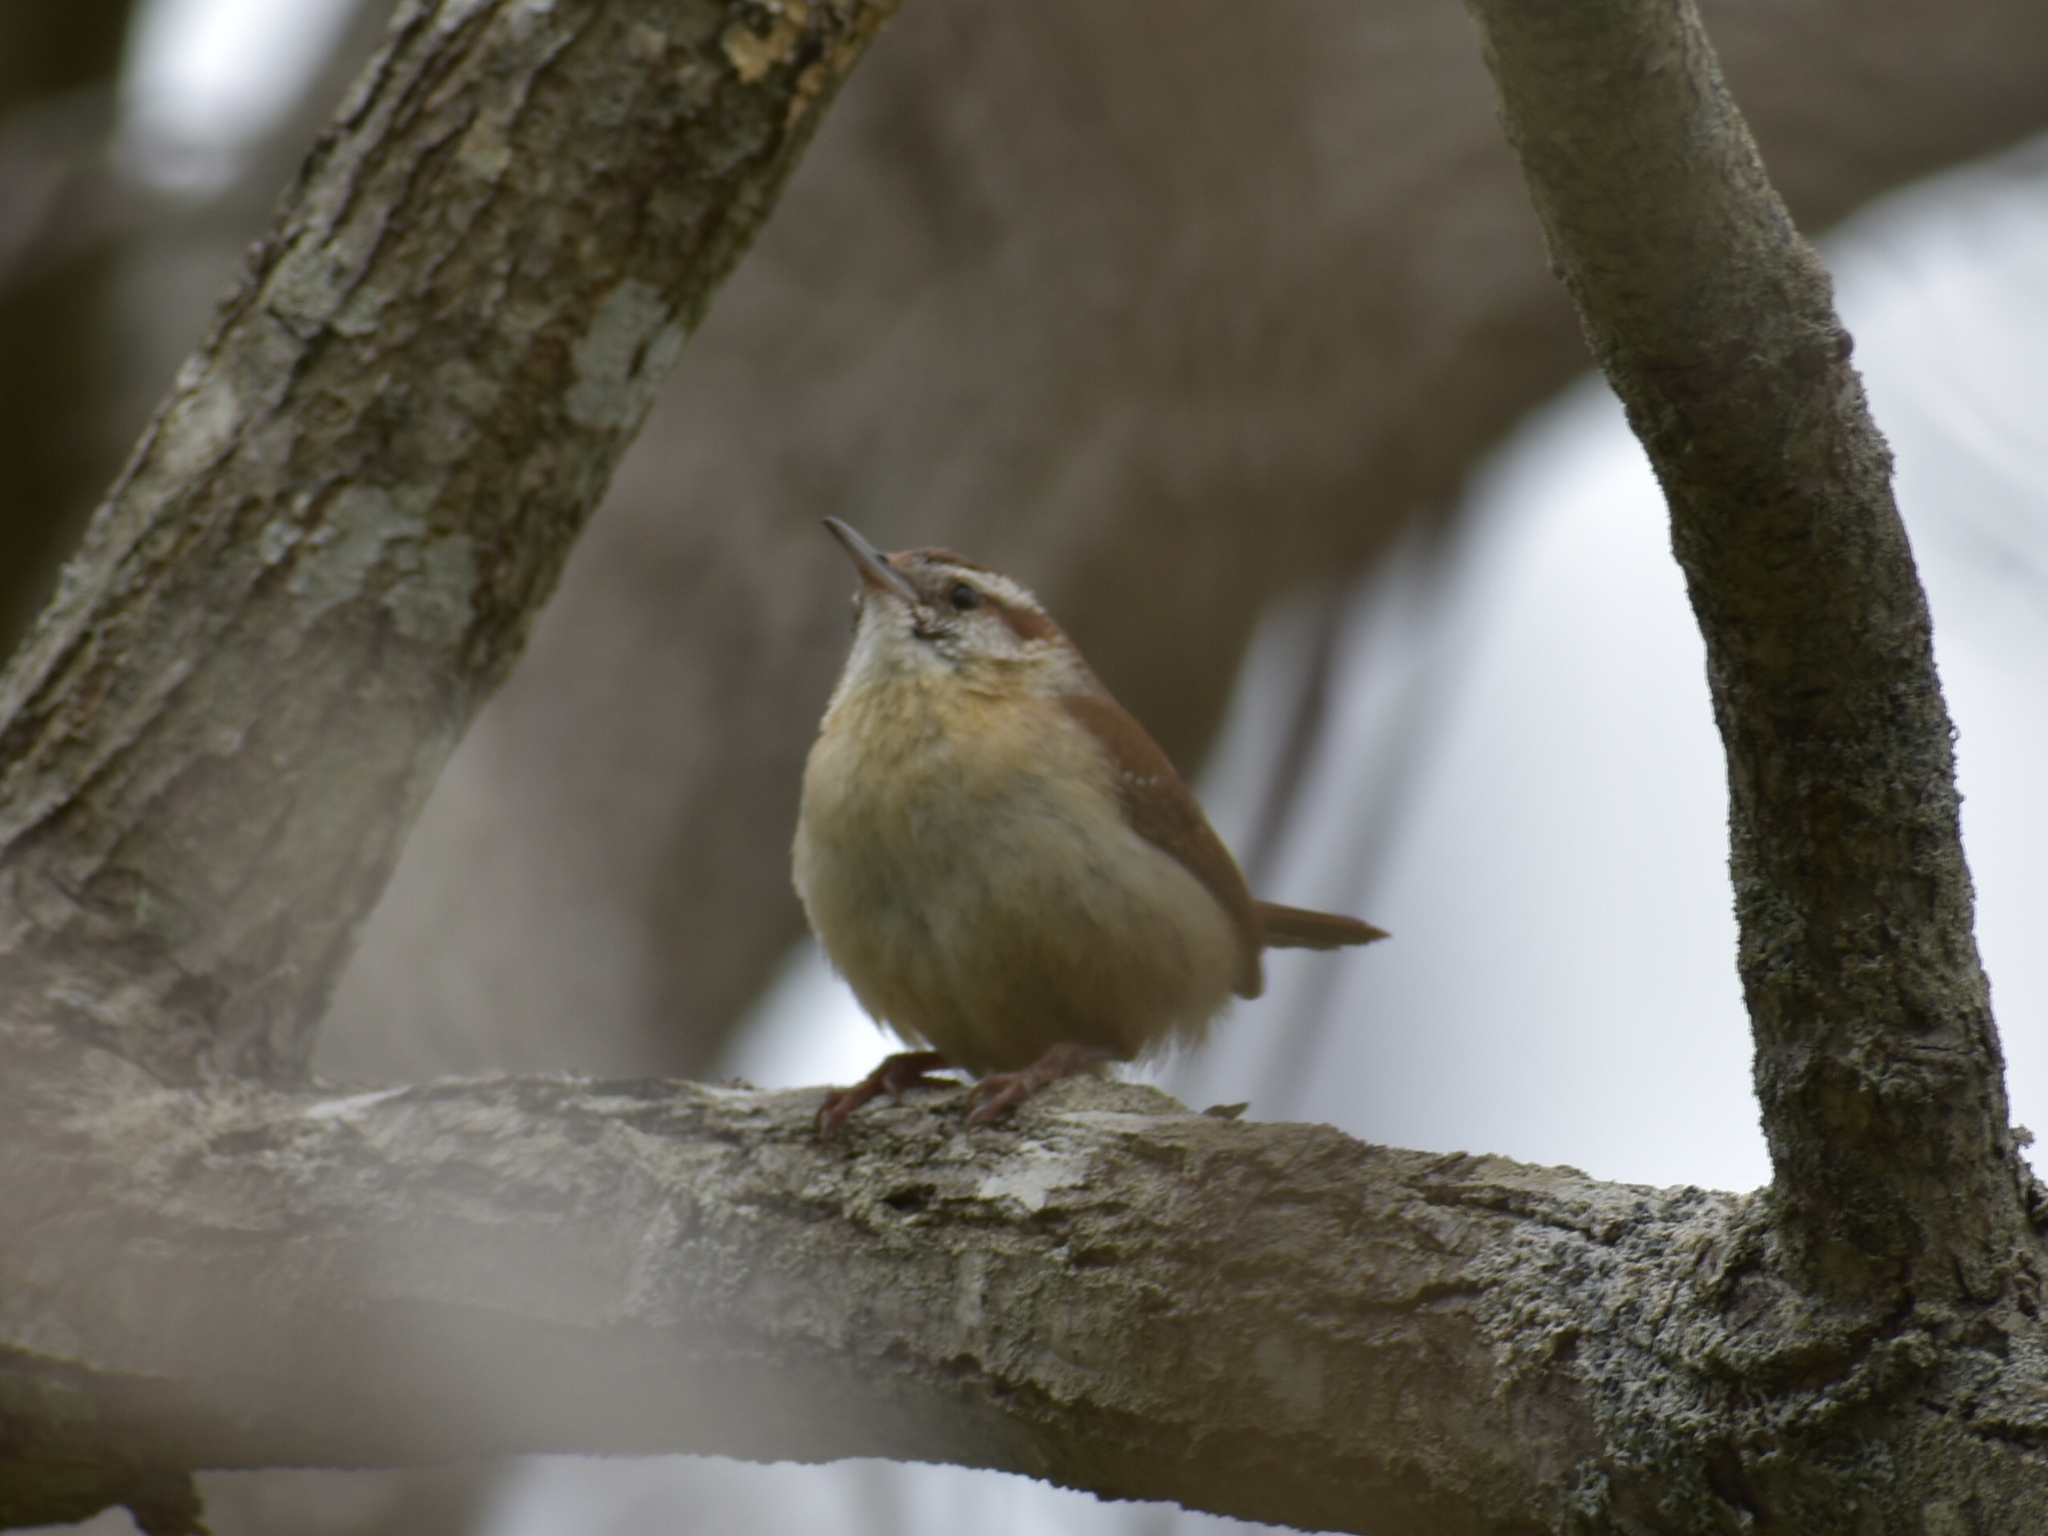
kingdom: Animalia
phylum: Chordata
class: Aves
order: Passeriformes
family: Troglodytidae
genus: Thryothorus
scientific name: Thryothorus ludovicianus
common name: Carolina wren
